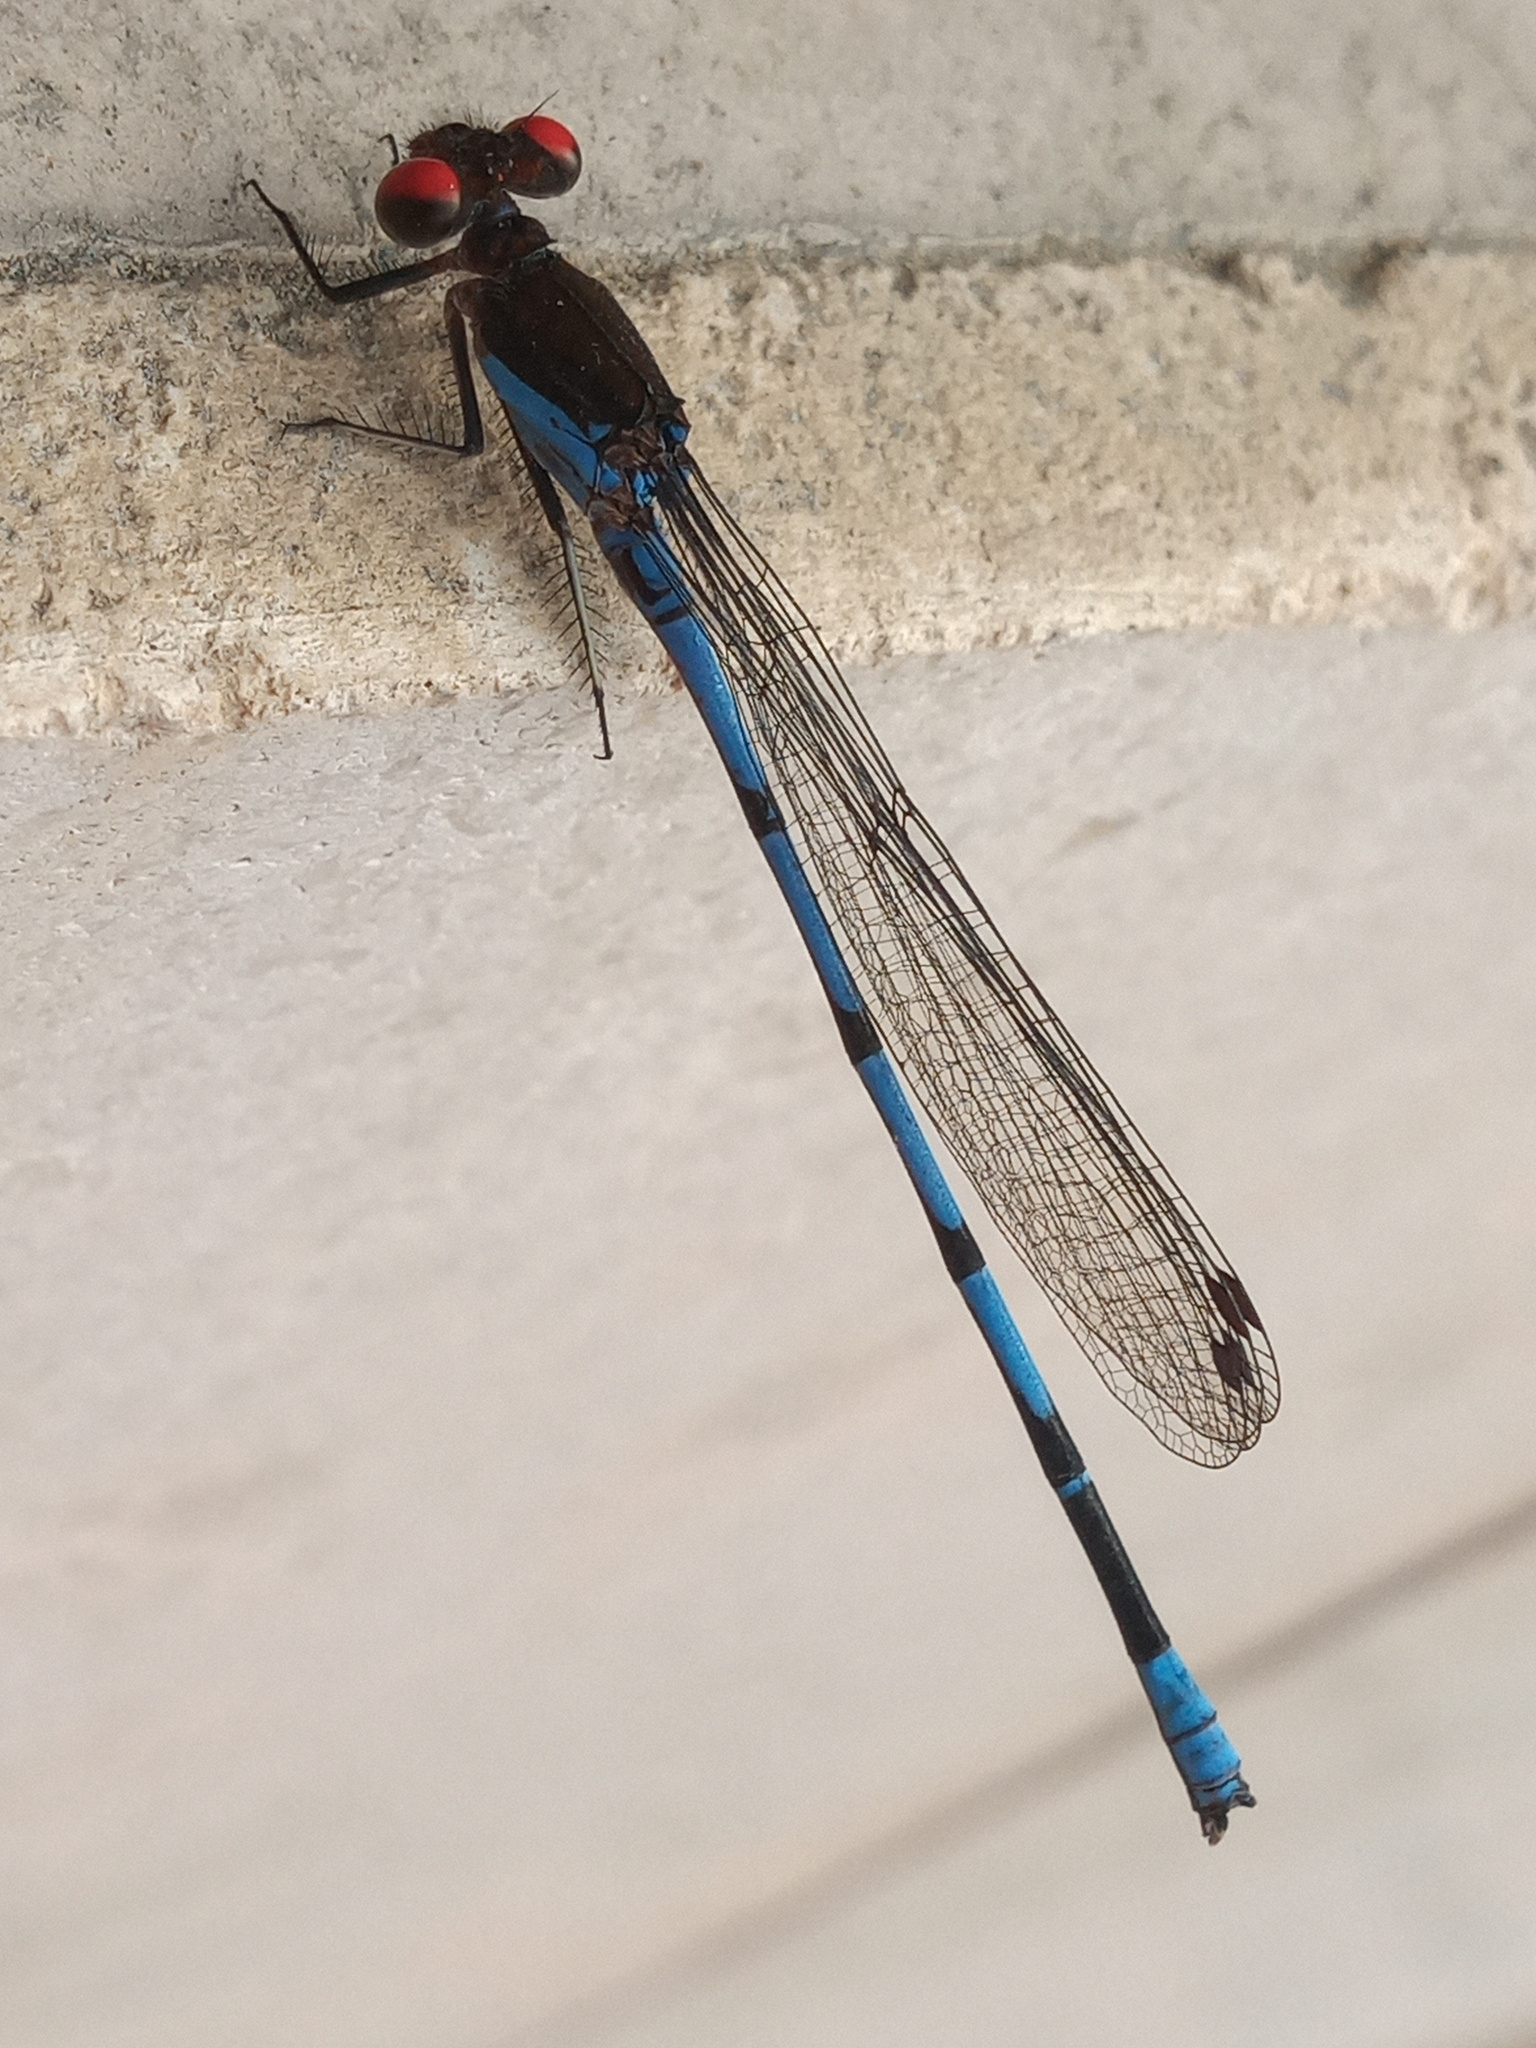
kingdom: Animalia
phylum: Arthropoda
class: Insecta
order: Odonata
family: Coenagrionidae
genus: Argia
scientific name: Argia oenea
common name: Fiery-eyed dancer
